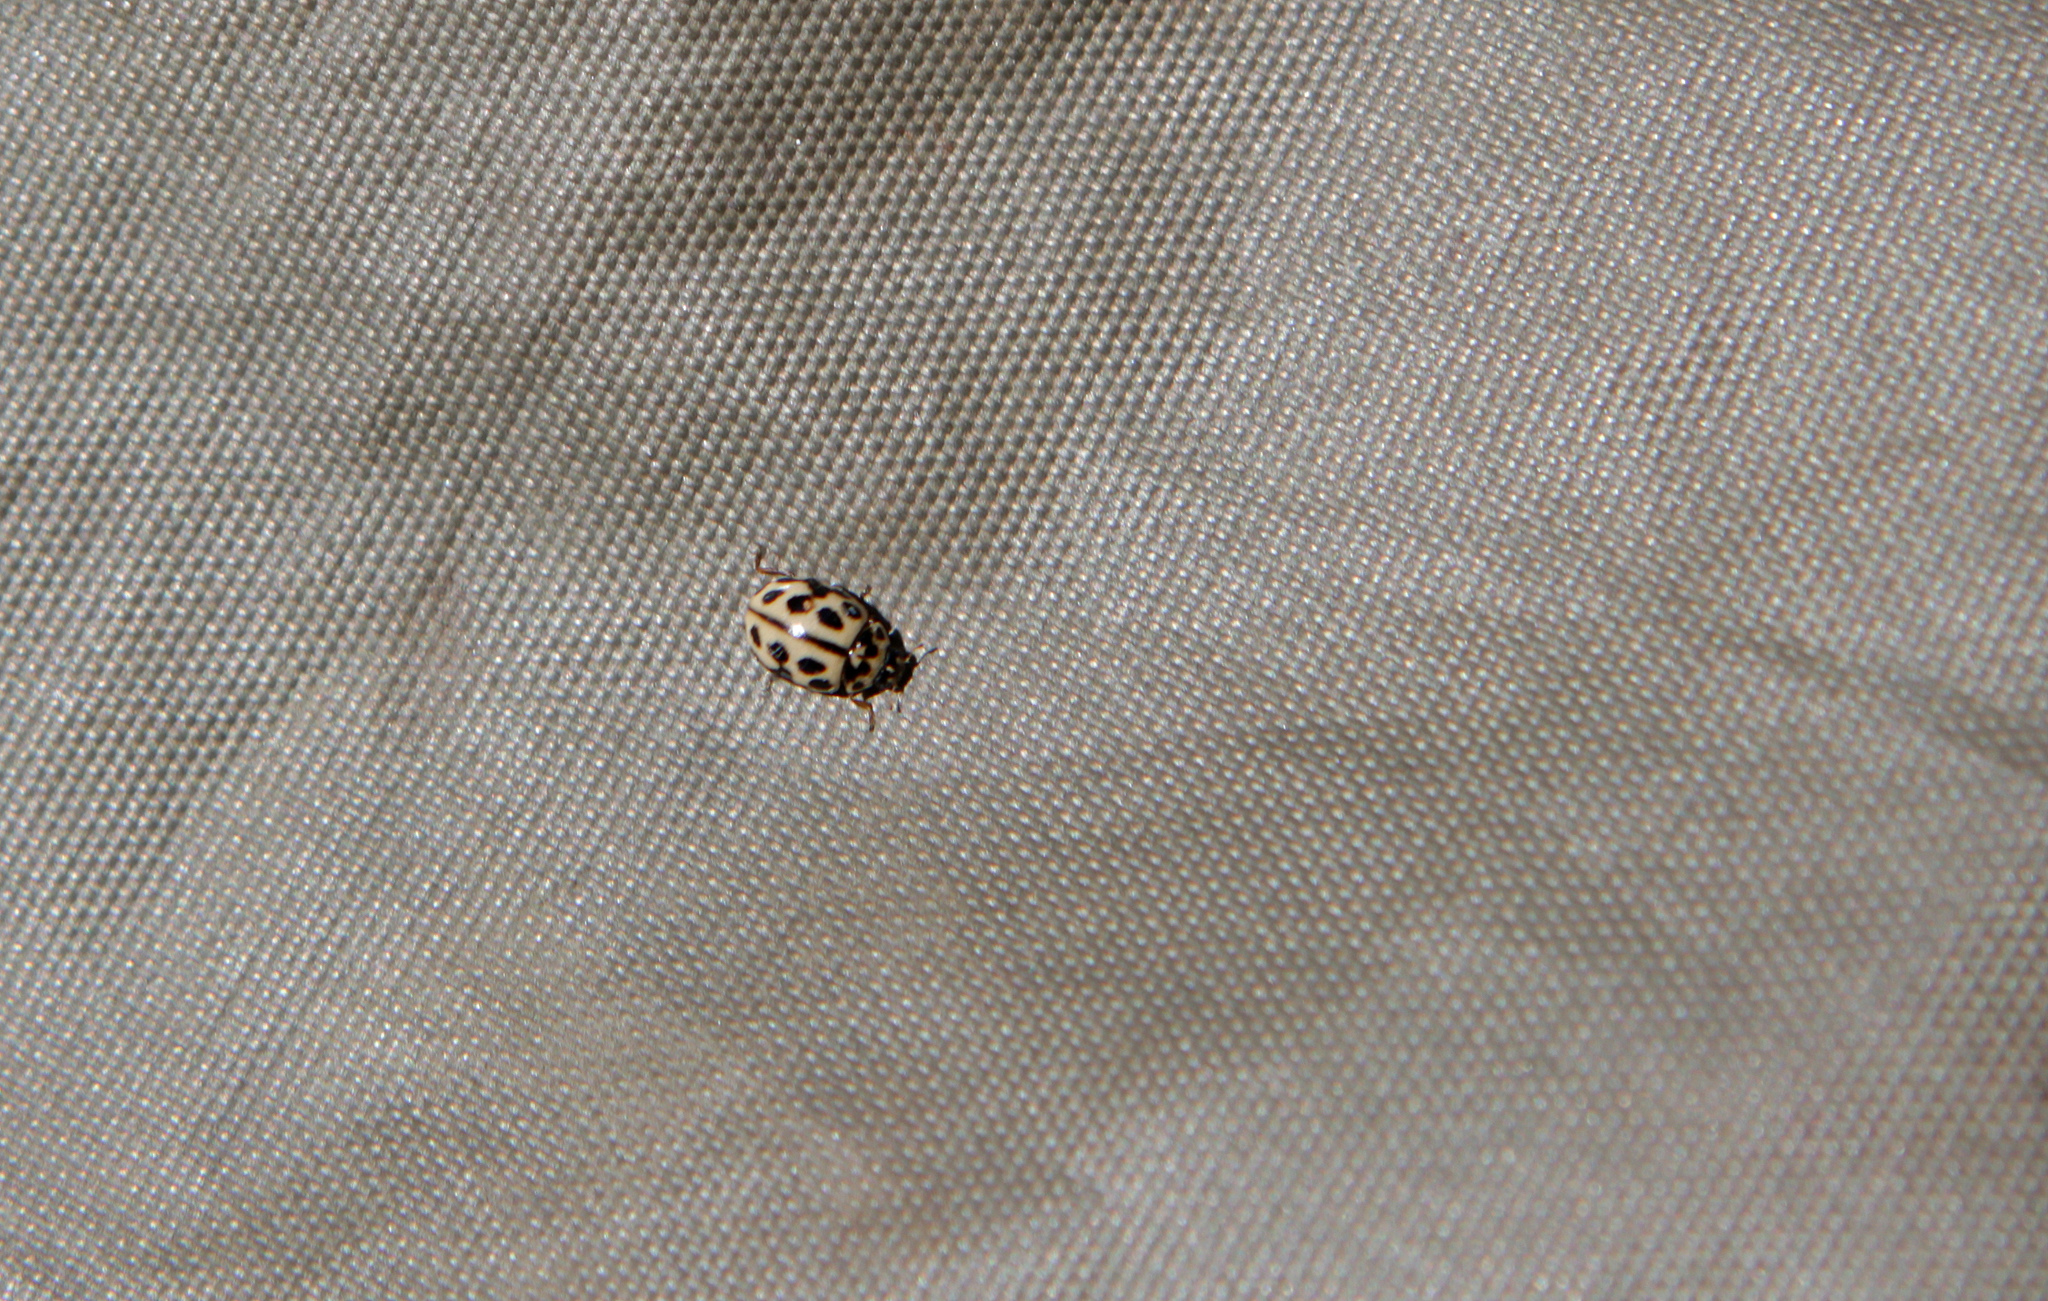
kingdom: Animalia
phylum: Arthropoda
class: Insecta
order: Coleoptera
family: Coccinellidae
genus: Tytthaspis
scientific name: Tytthaspis sedecimpunctata
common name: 16-spot ladybird
